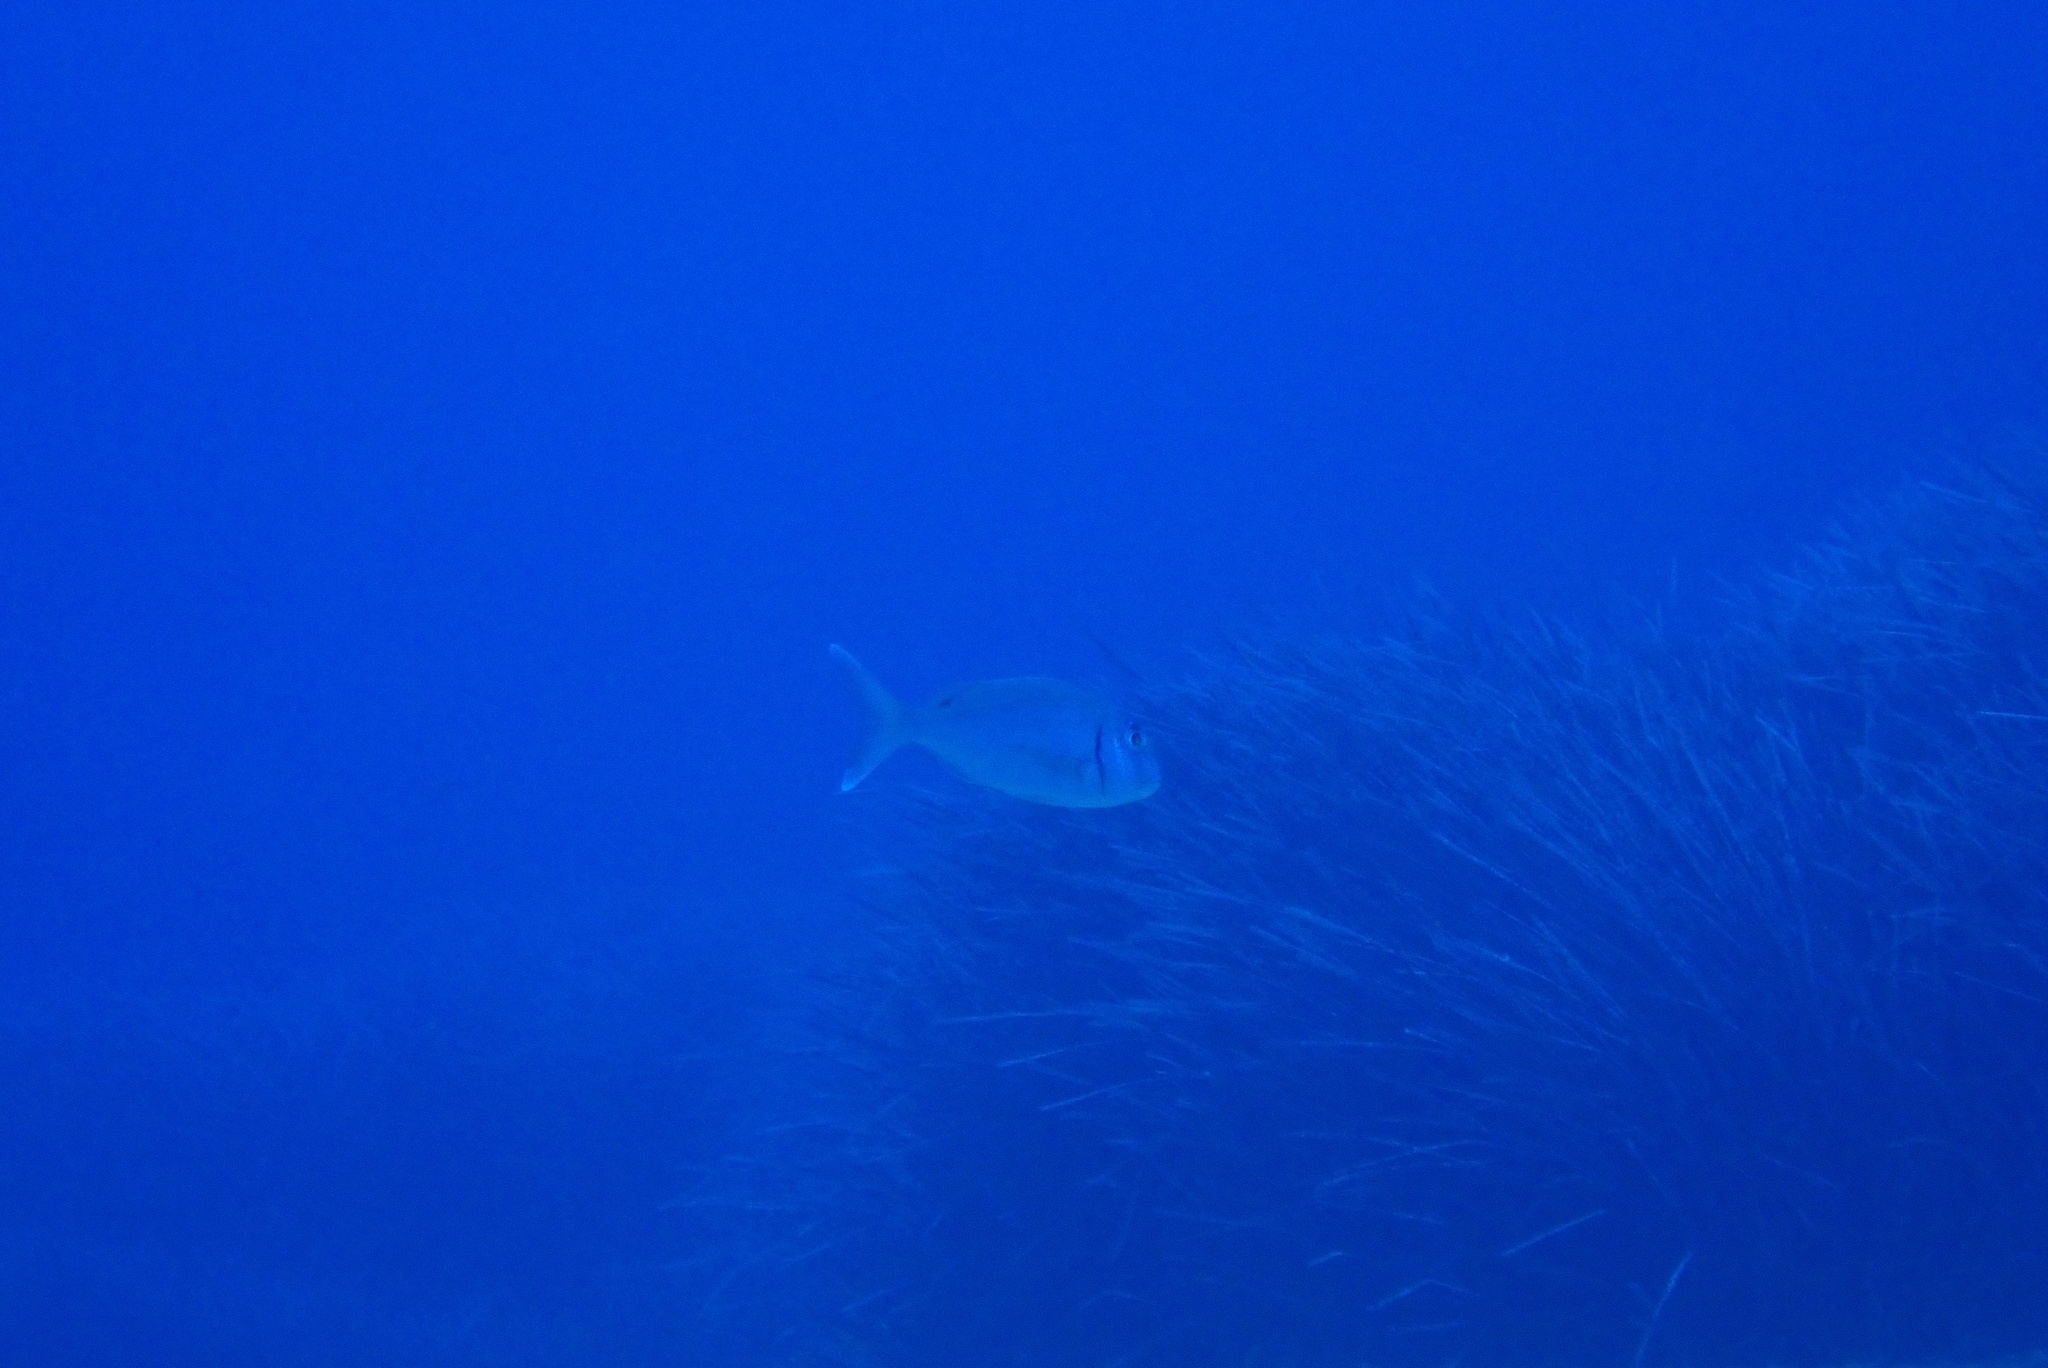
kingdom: Animalia
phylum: Chordata
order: Perciformes
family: Sparidae
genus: Pagrus
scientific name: Pagrus pagrus
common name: Red porgy
